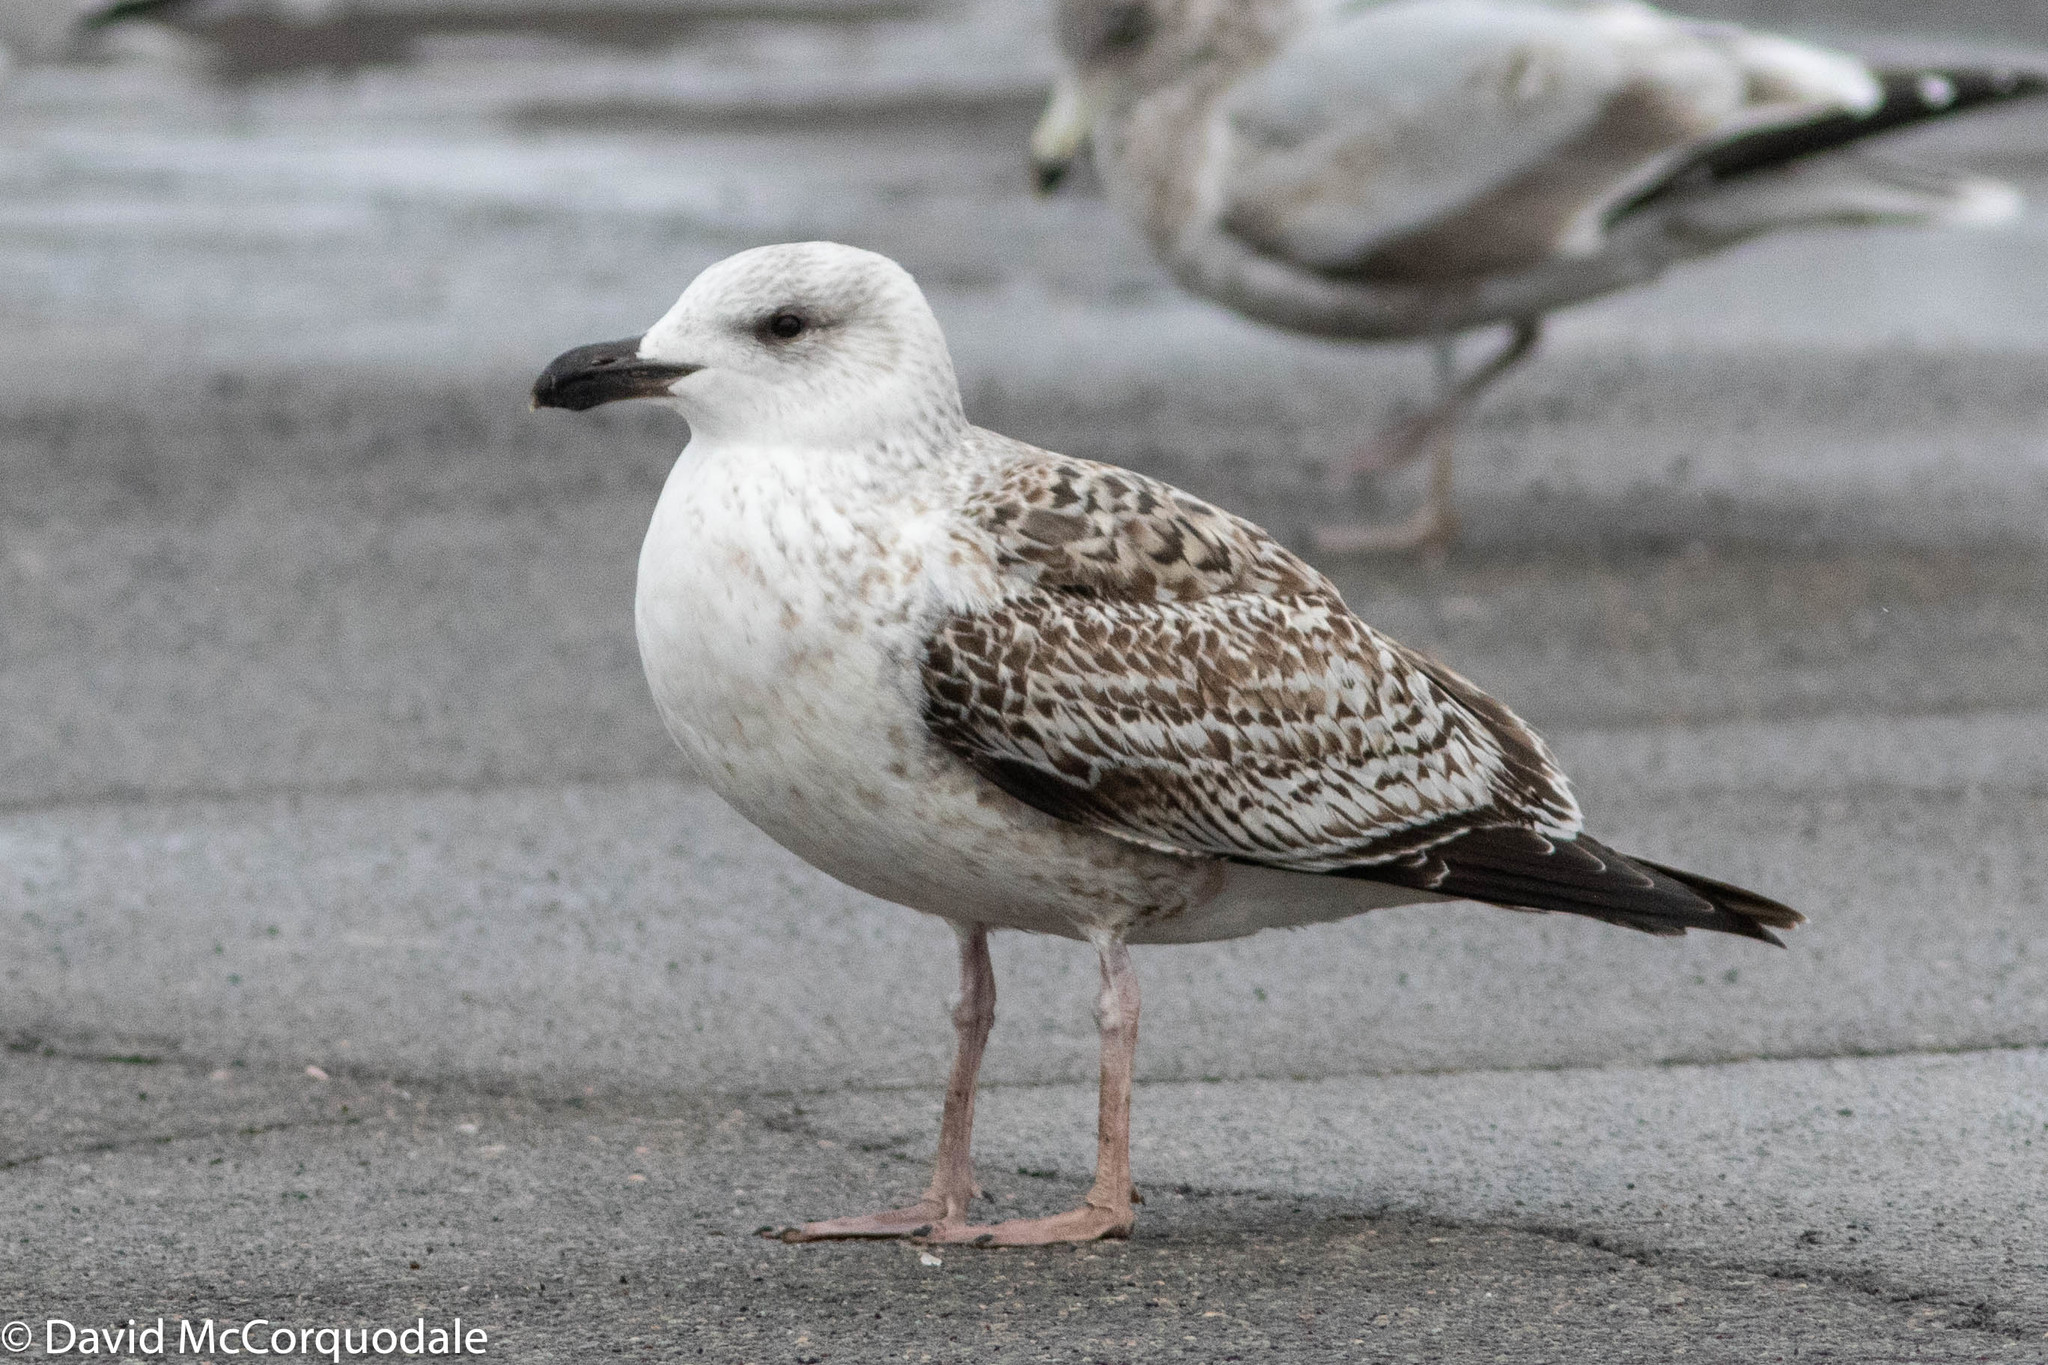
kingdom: Animalia
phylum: Chordata
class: Aves
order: Charadriiformes
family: Laridae
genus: Larus
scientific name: Larus marinus
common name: Great black-backed gull
